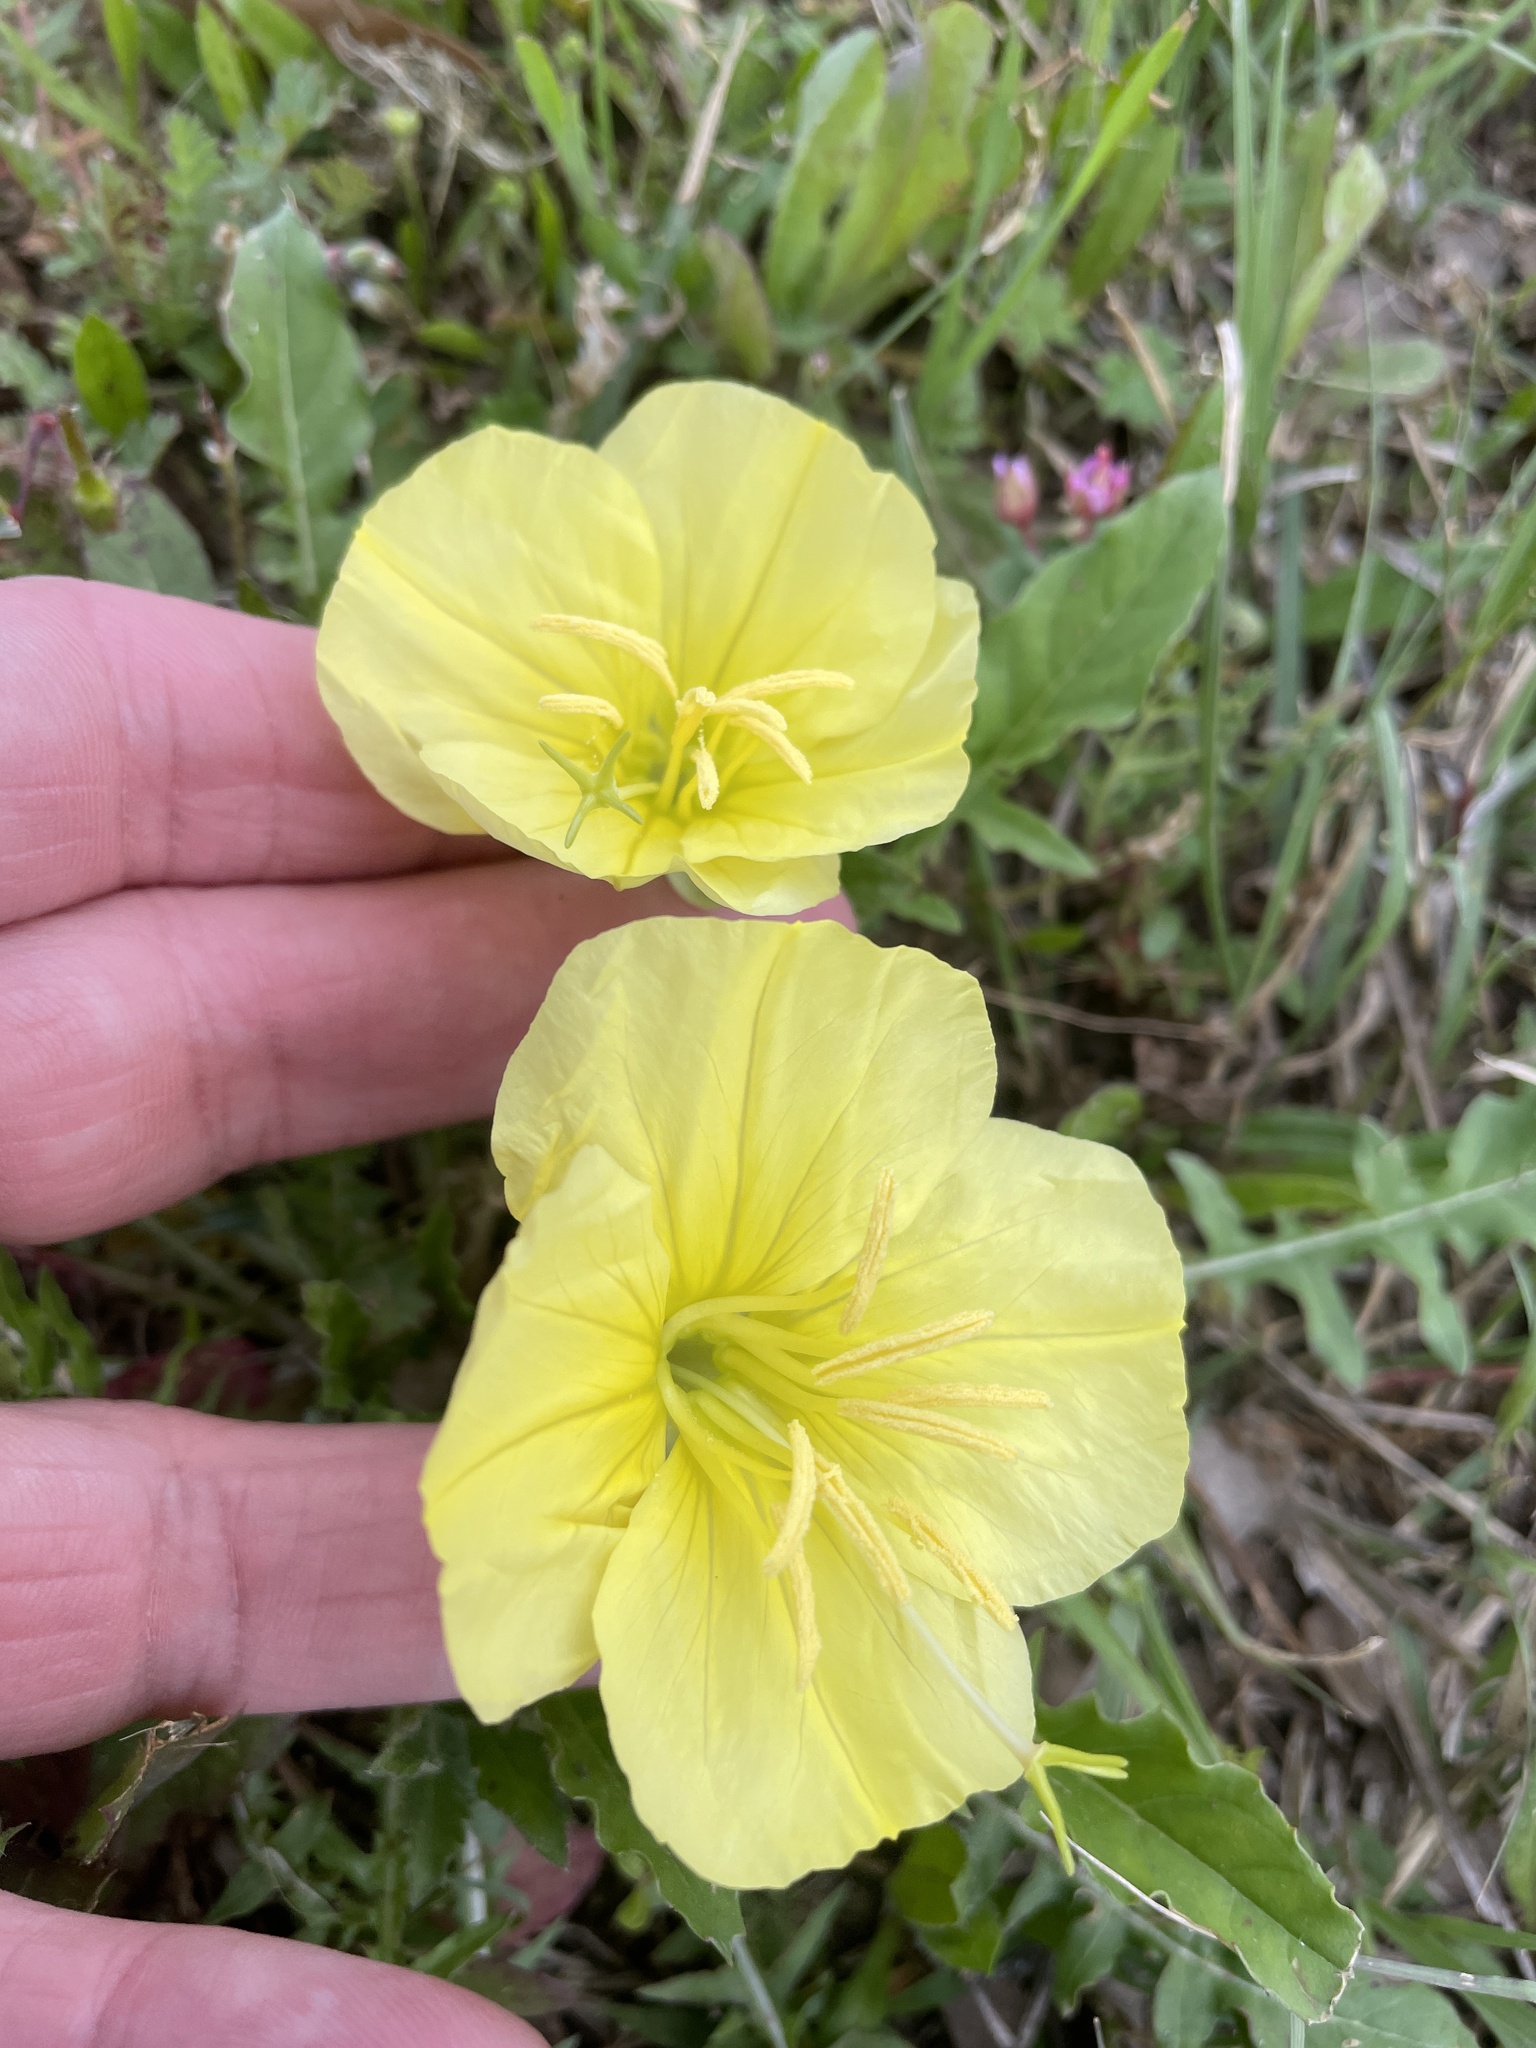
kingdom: Plantae
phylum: Tracheophyta
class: Magnoliopsida
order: Myrtales
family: Onagraceae
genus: Oenothera
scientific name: Oenothera triloba
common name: Sessile evening-primrose
